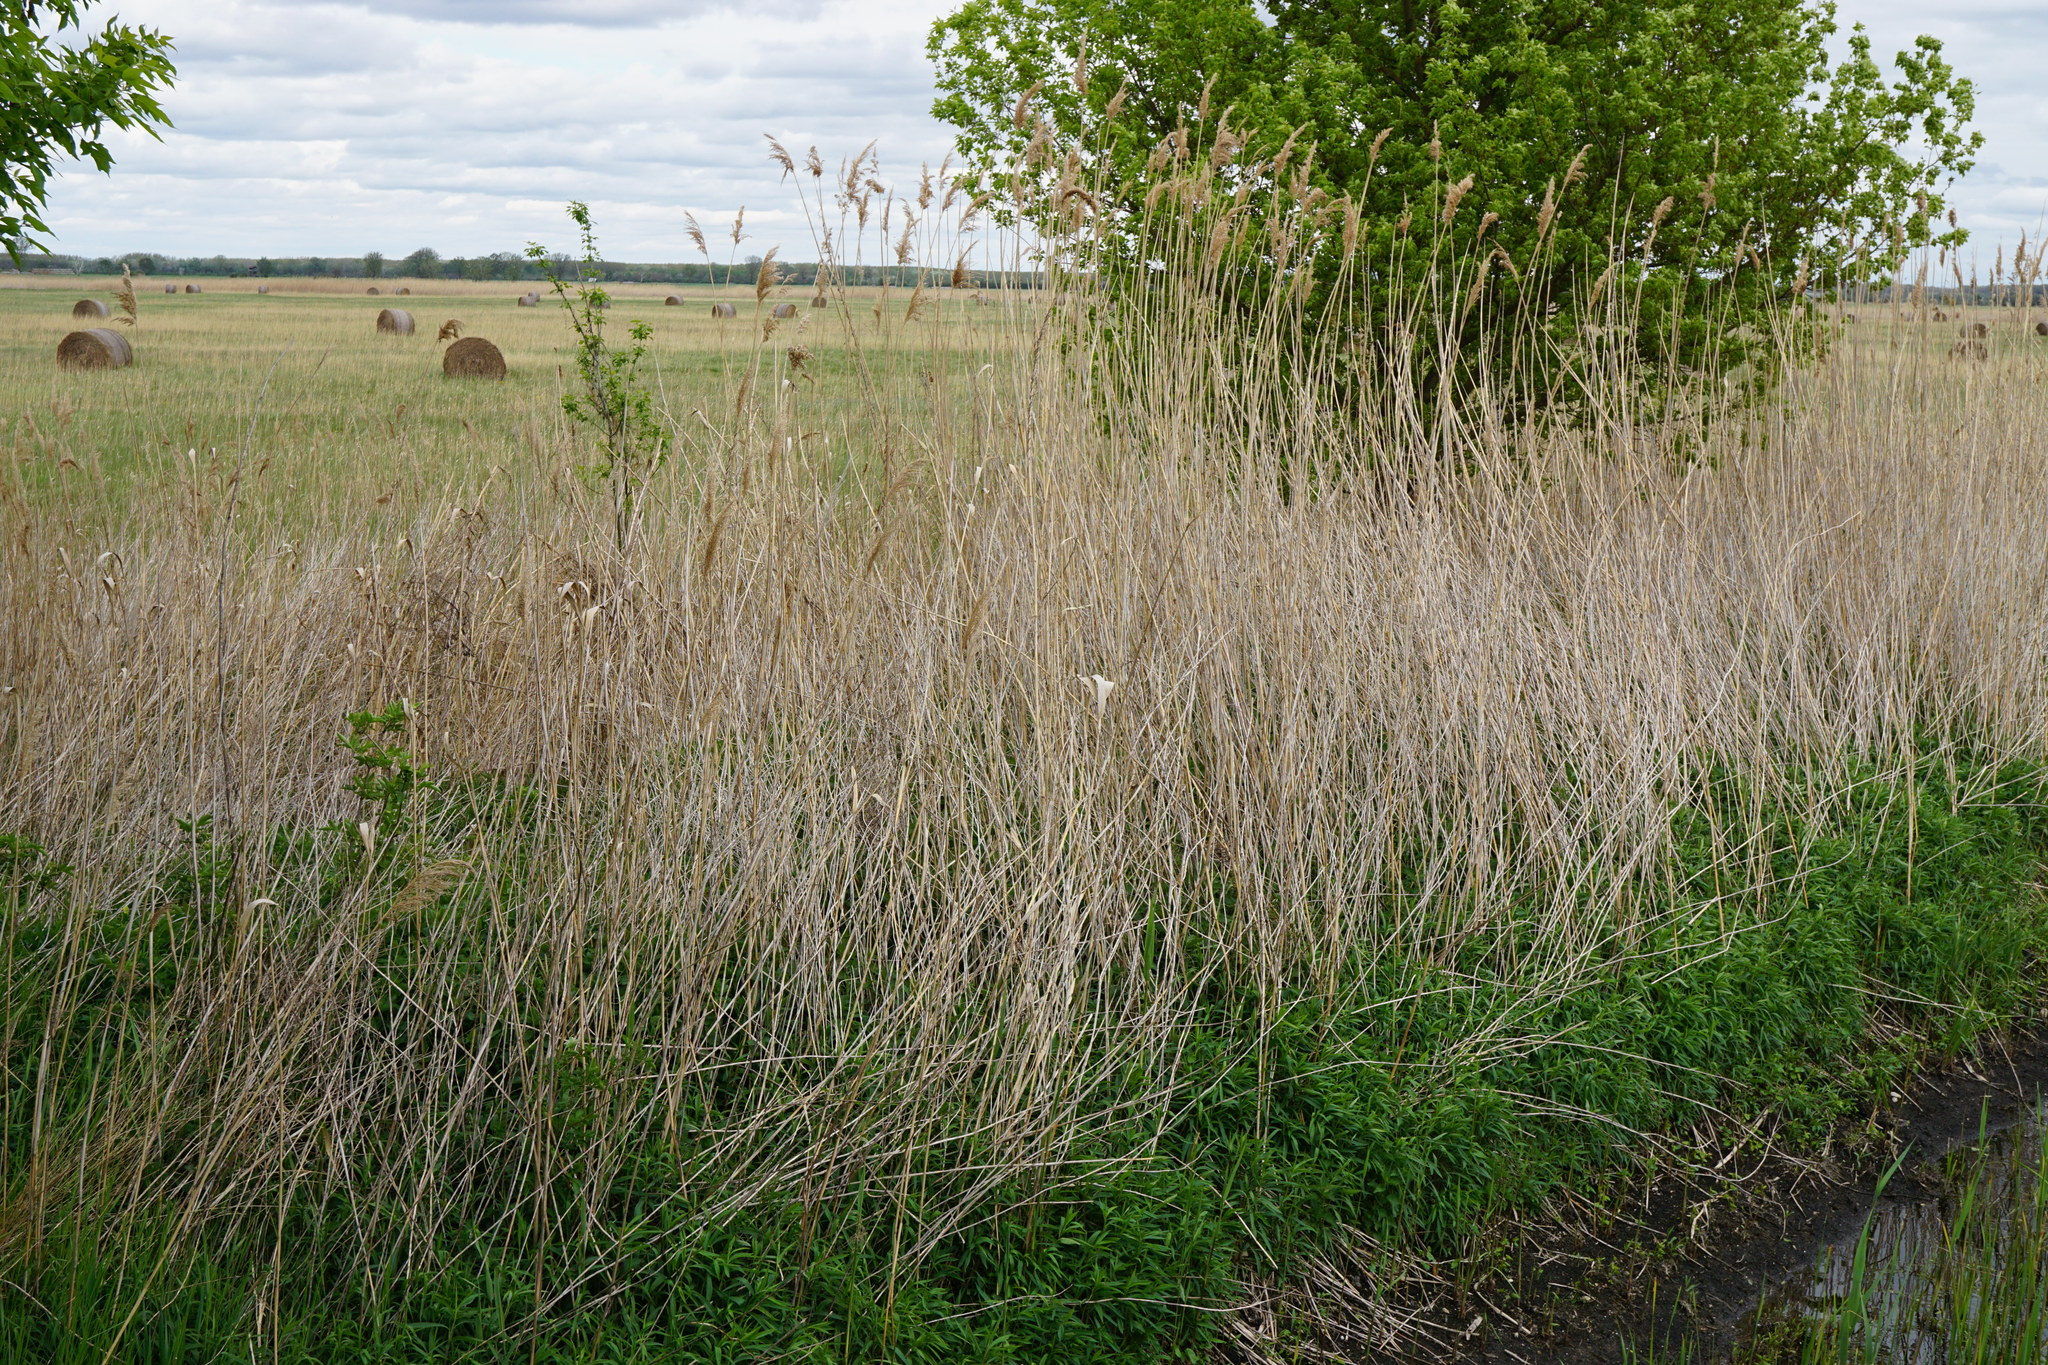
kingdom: Plantae
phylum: Tracheophyta
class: Liliopsida
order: Poales
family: Poaceae
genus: Phragmites
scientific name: Phragmites australis
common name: Common reed
